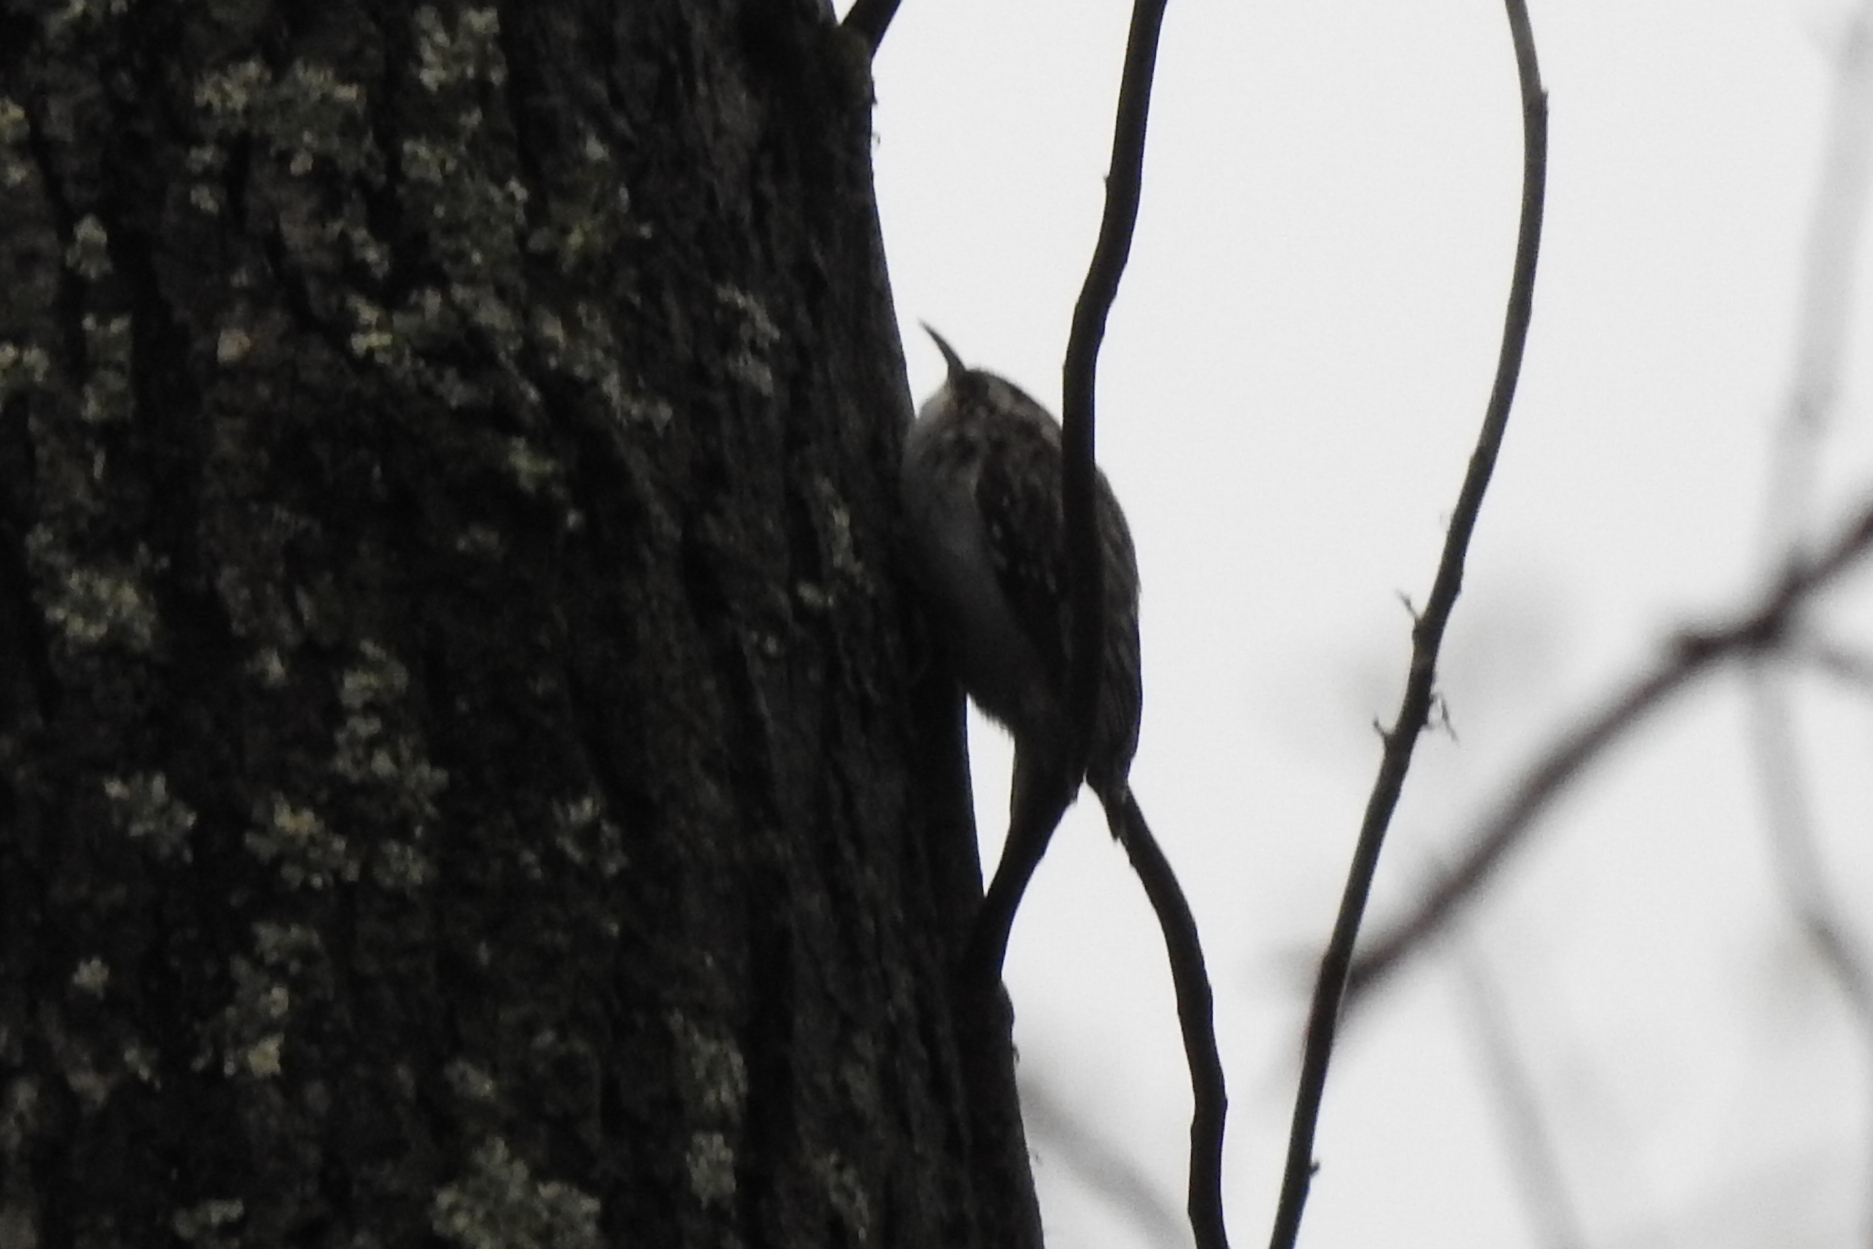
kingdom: Animalia
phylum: Chordata
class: Aves
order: Passeriformes
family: Certhiidae
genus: Certhia
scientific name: Certhia americana
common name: Brown creeper
